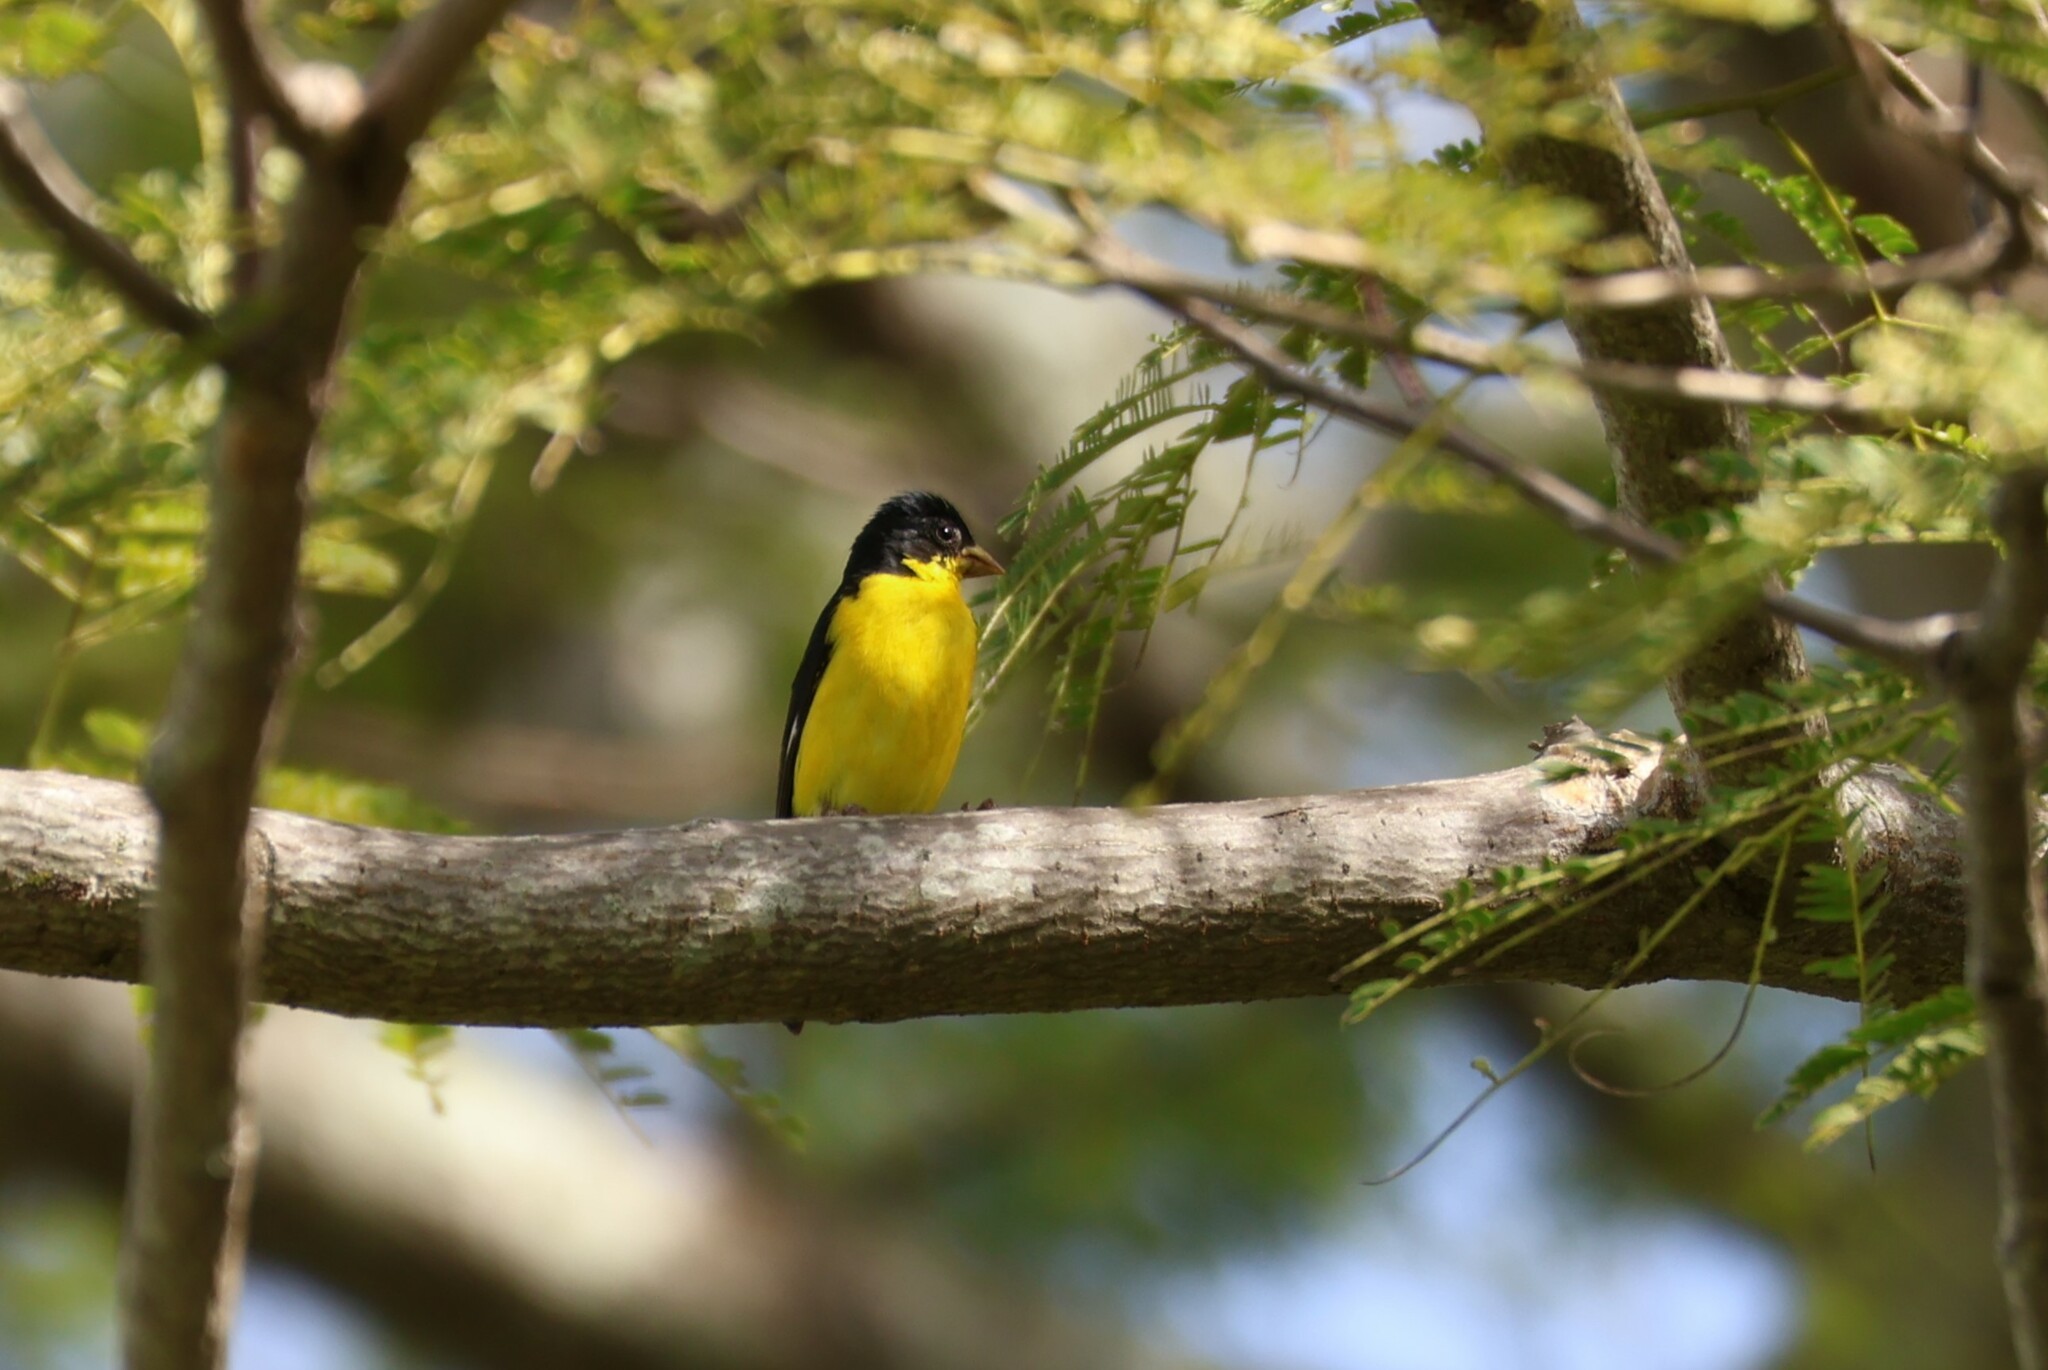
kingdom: Animalia
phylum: Chordata
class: Aves
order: Passeriformes
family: Fringillidae
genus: Spinus
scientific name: Spinus psaltria
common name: Lesser goldfinch
